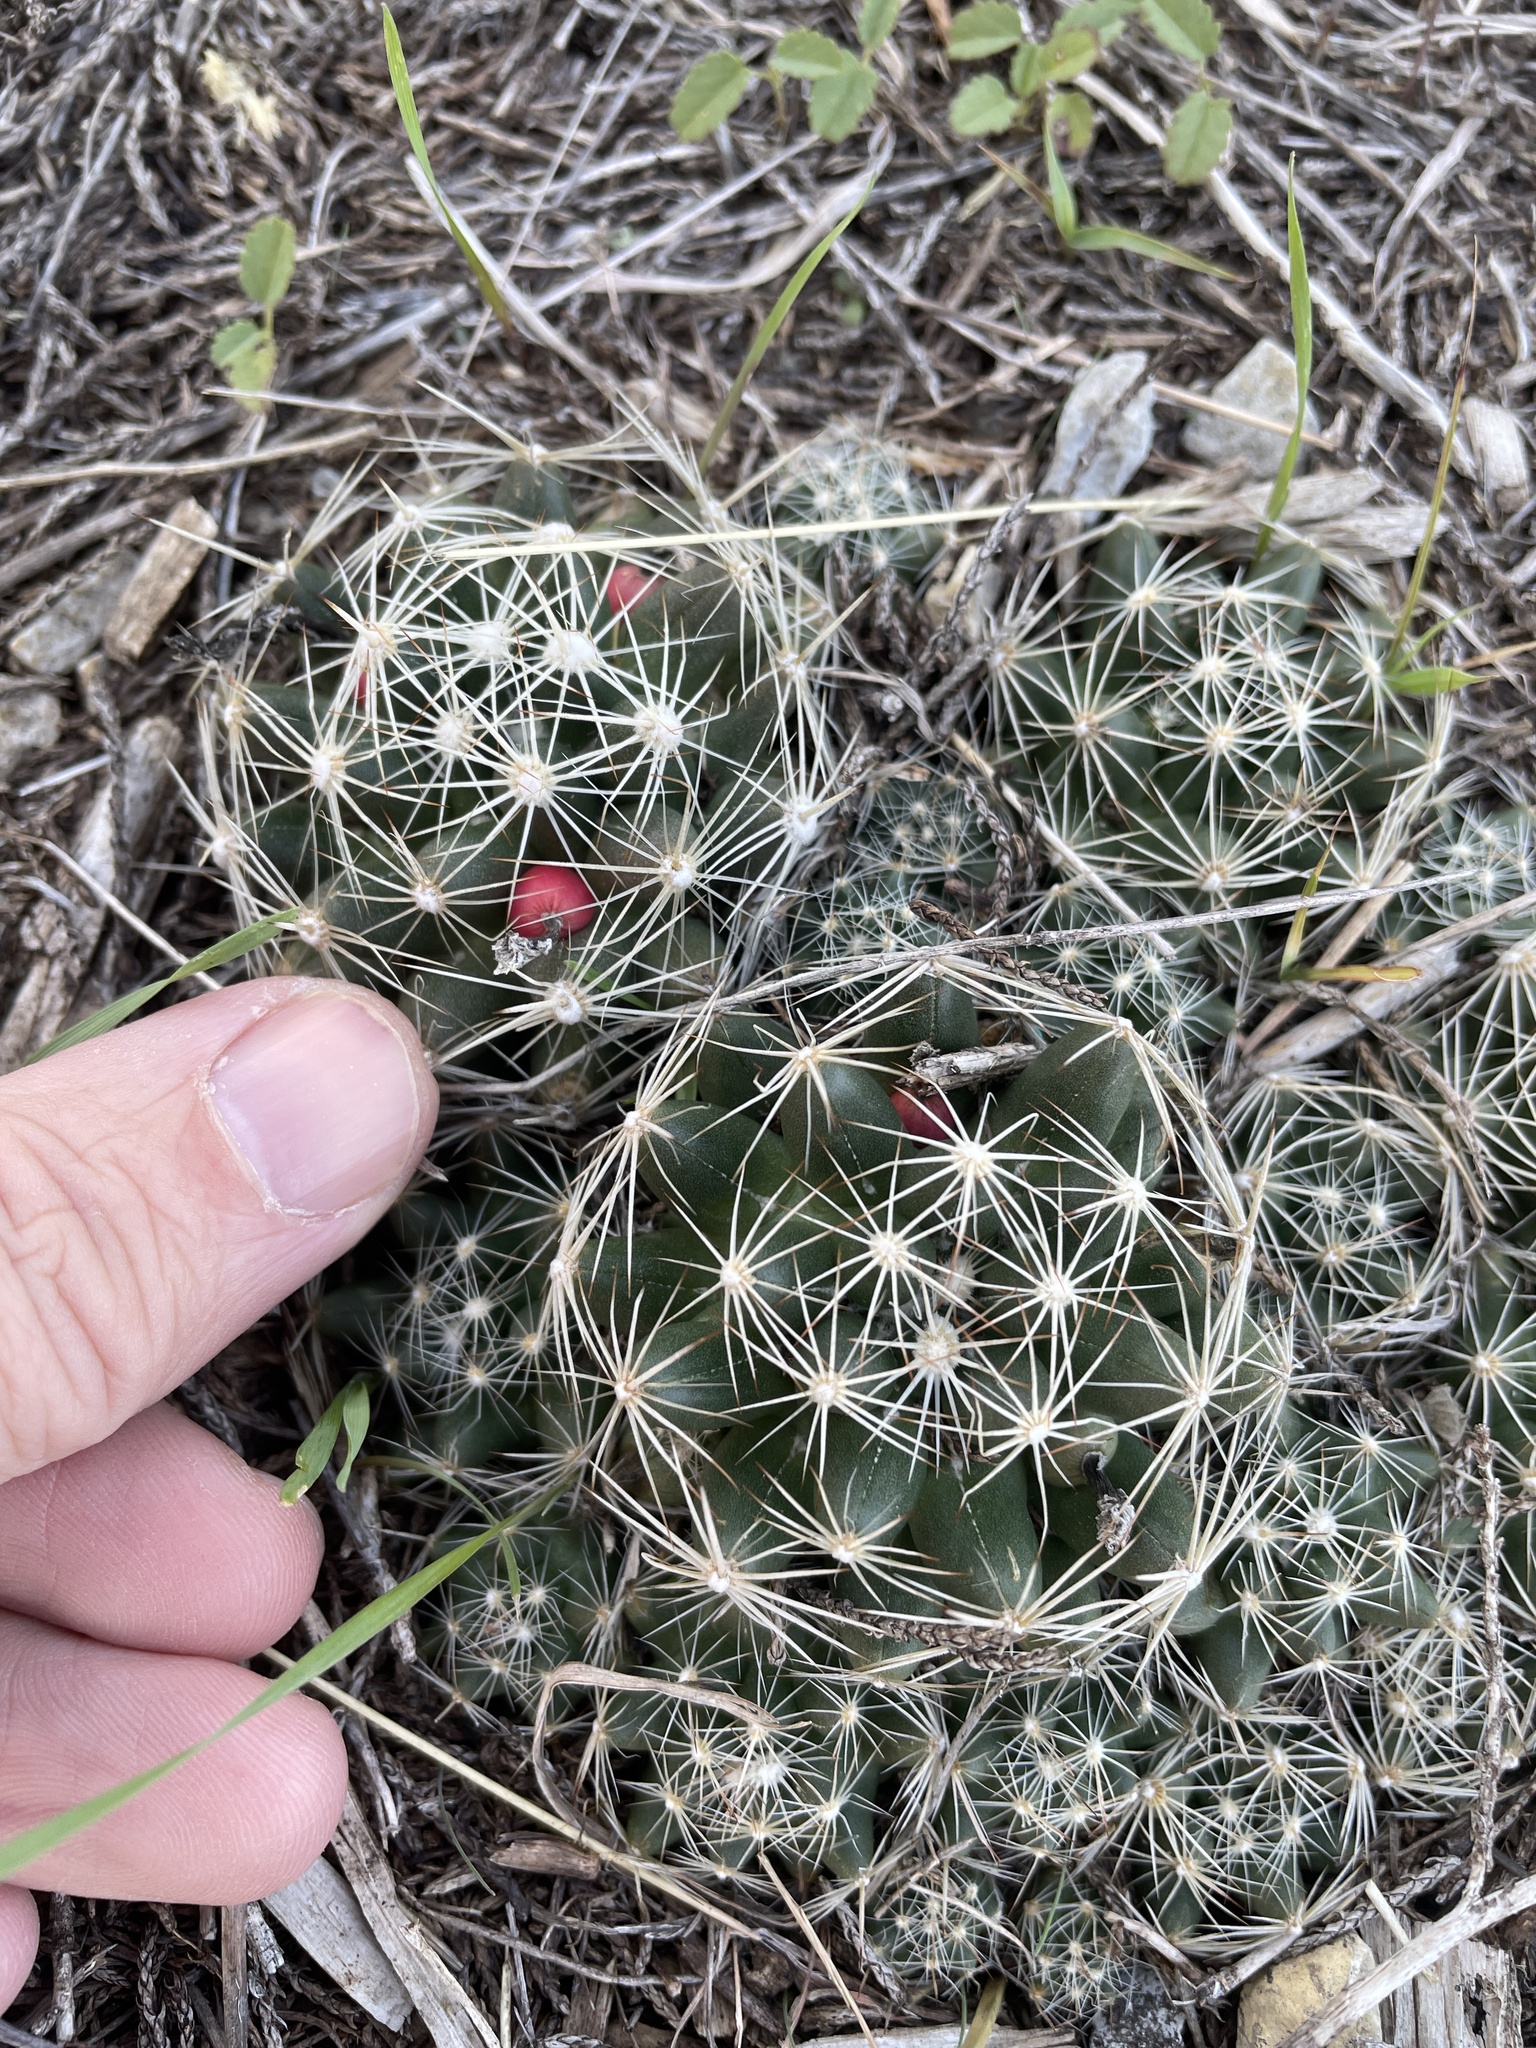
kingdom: Plantae
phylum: Tracheophyta
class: Magnoliopsida
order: Caryophyllales
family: Cactaceae
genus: Pelecyphora
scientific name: Pelecyphora missouriensis
